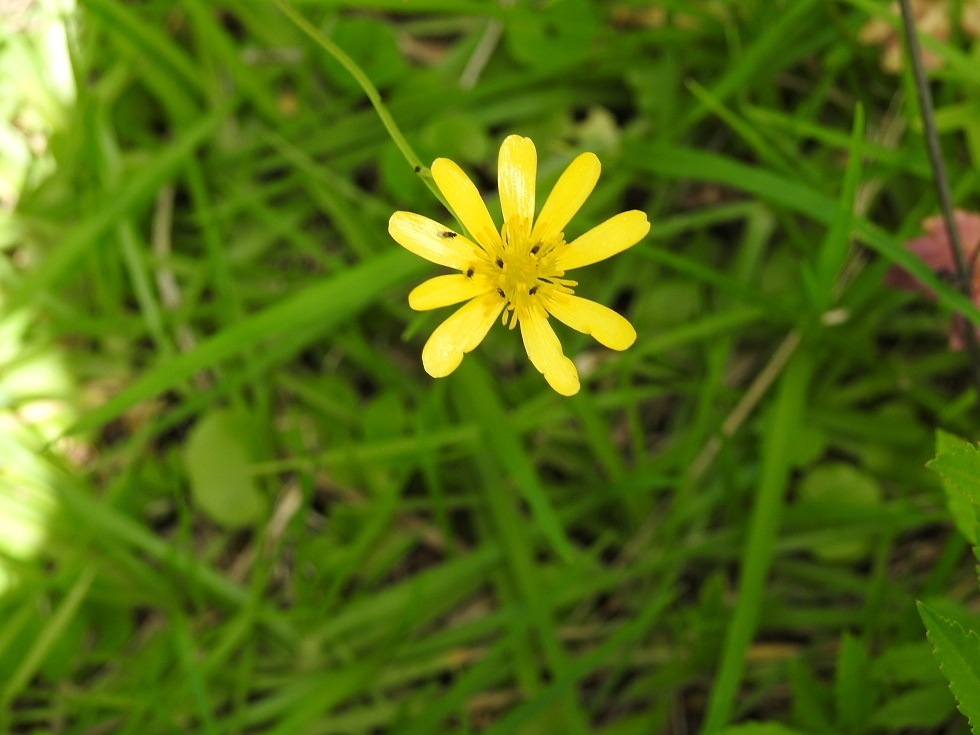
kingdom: Plantae
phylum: Tracheophyta
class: Magnoliopsida
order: Ranunculales
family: Ranunculaceae
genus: Ranunculus
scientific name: Ranunculus petiolaris
